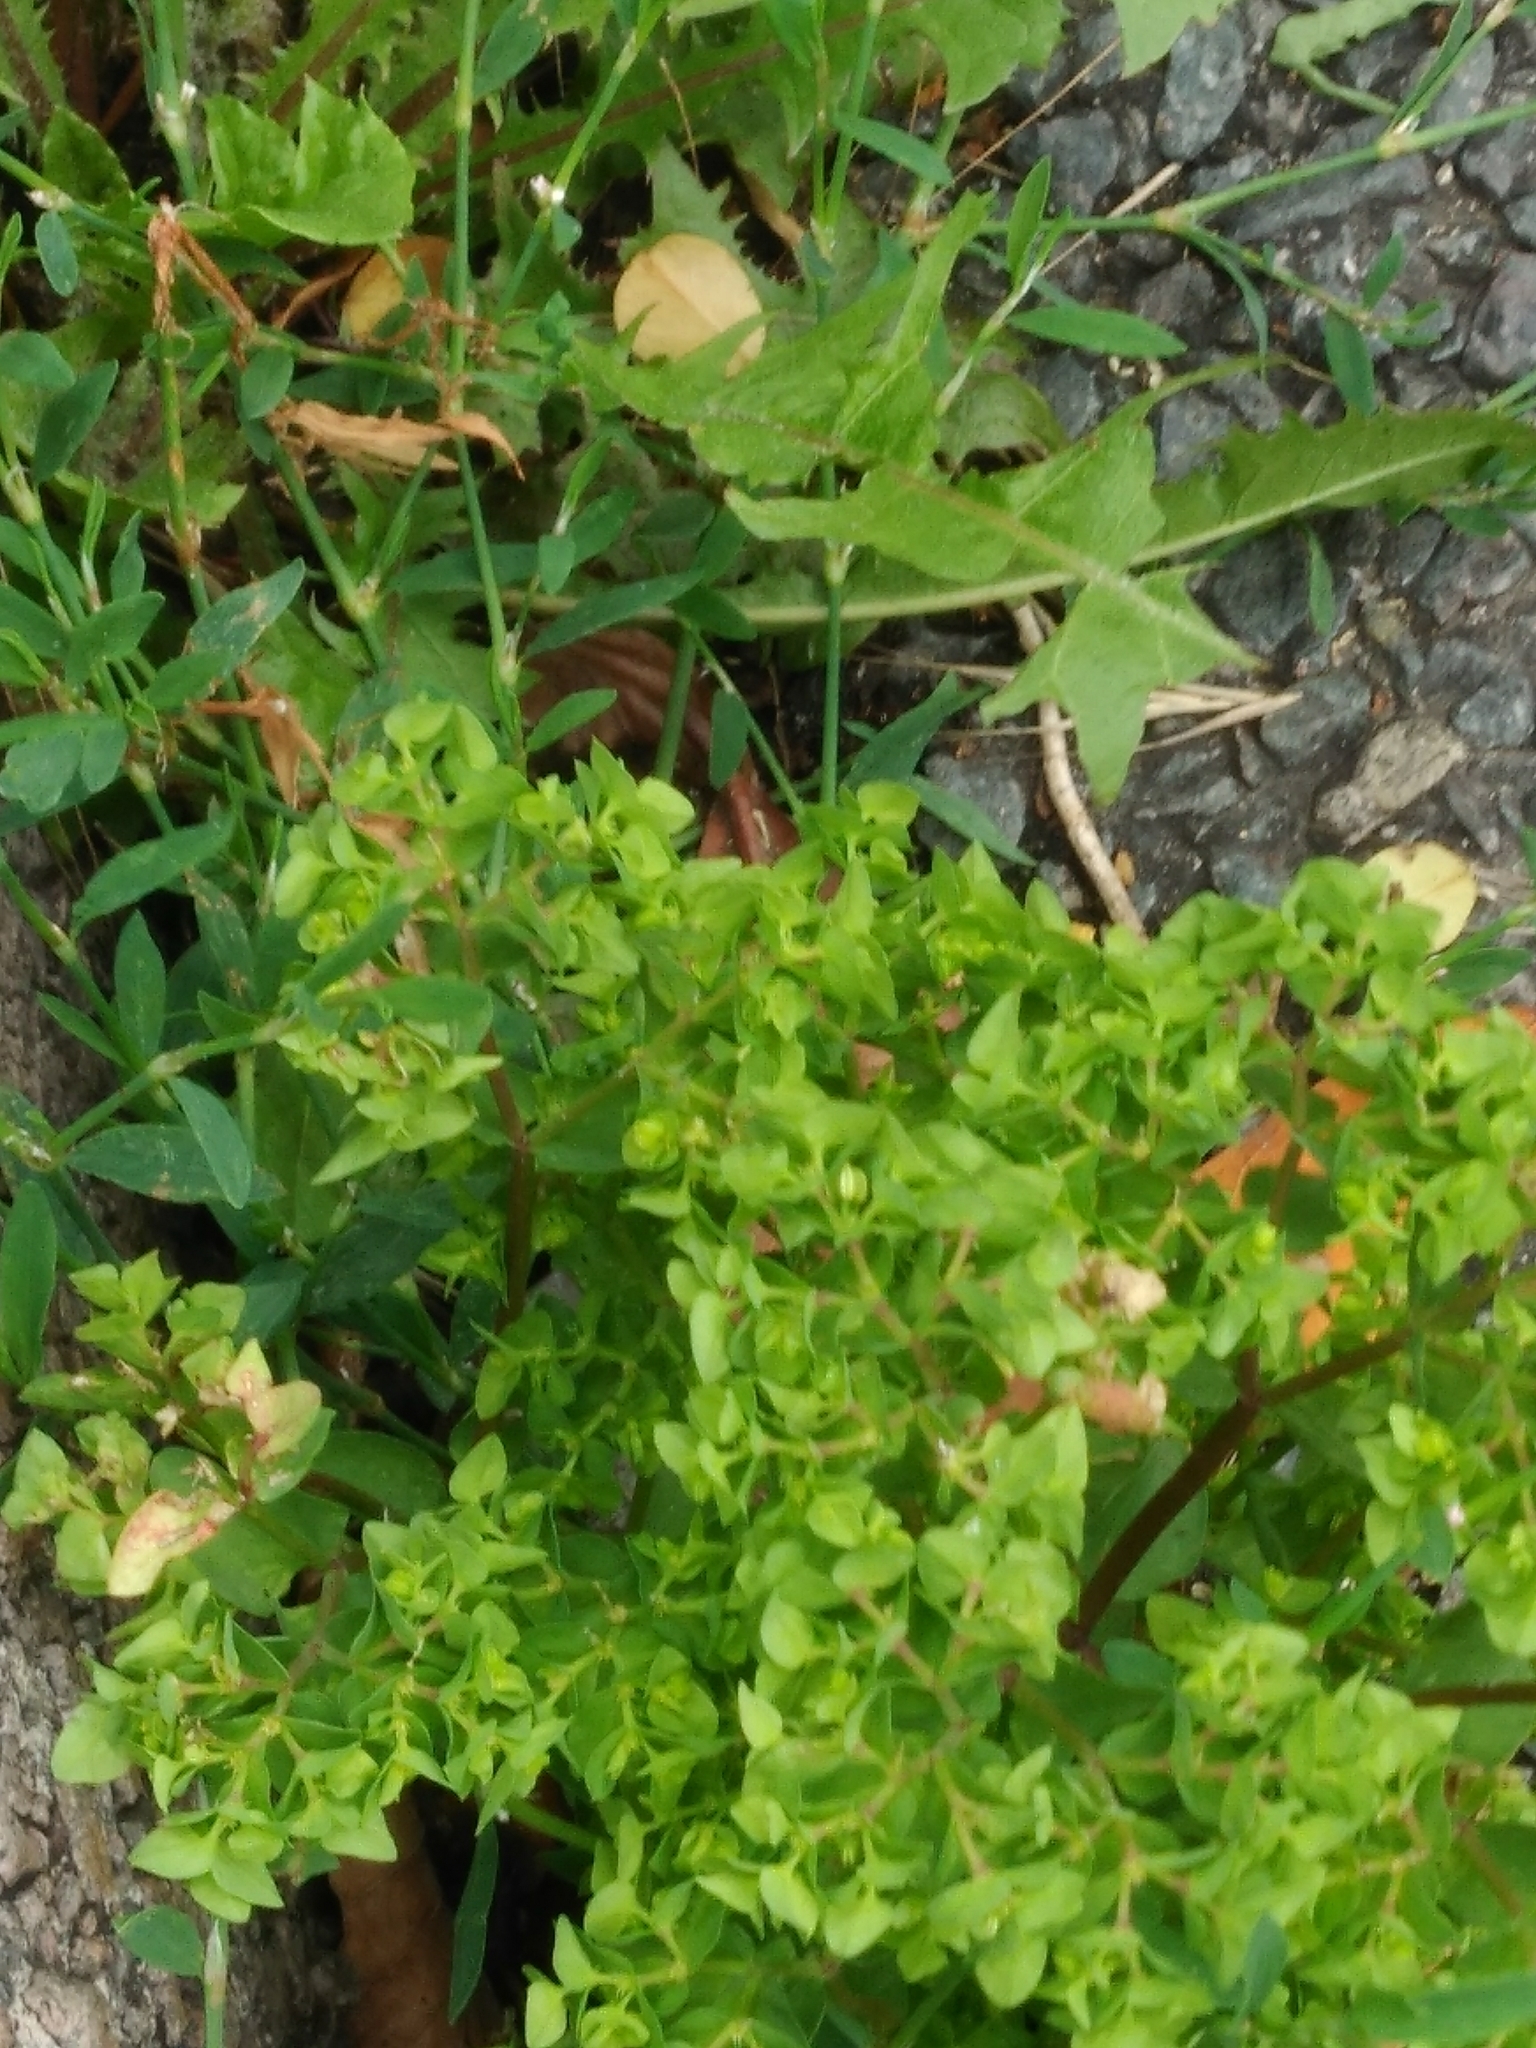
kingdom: Plantae
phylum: Tracheophyta
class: Magnoliopsida
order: Malpighiales
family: Euphorbiaceae
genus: Euphorbia
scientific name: Euphorbia peplus
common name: Petty spurge
